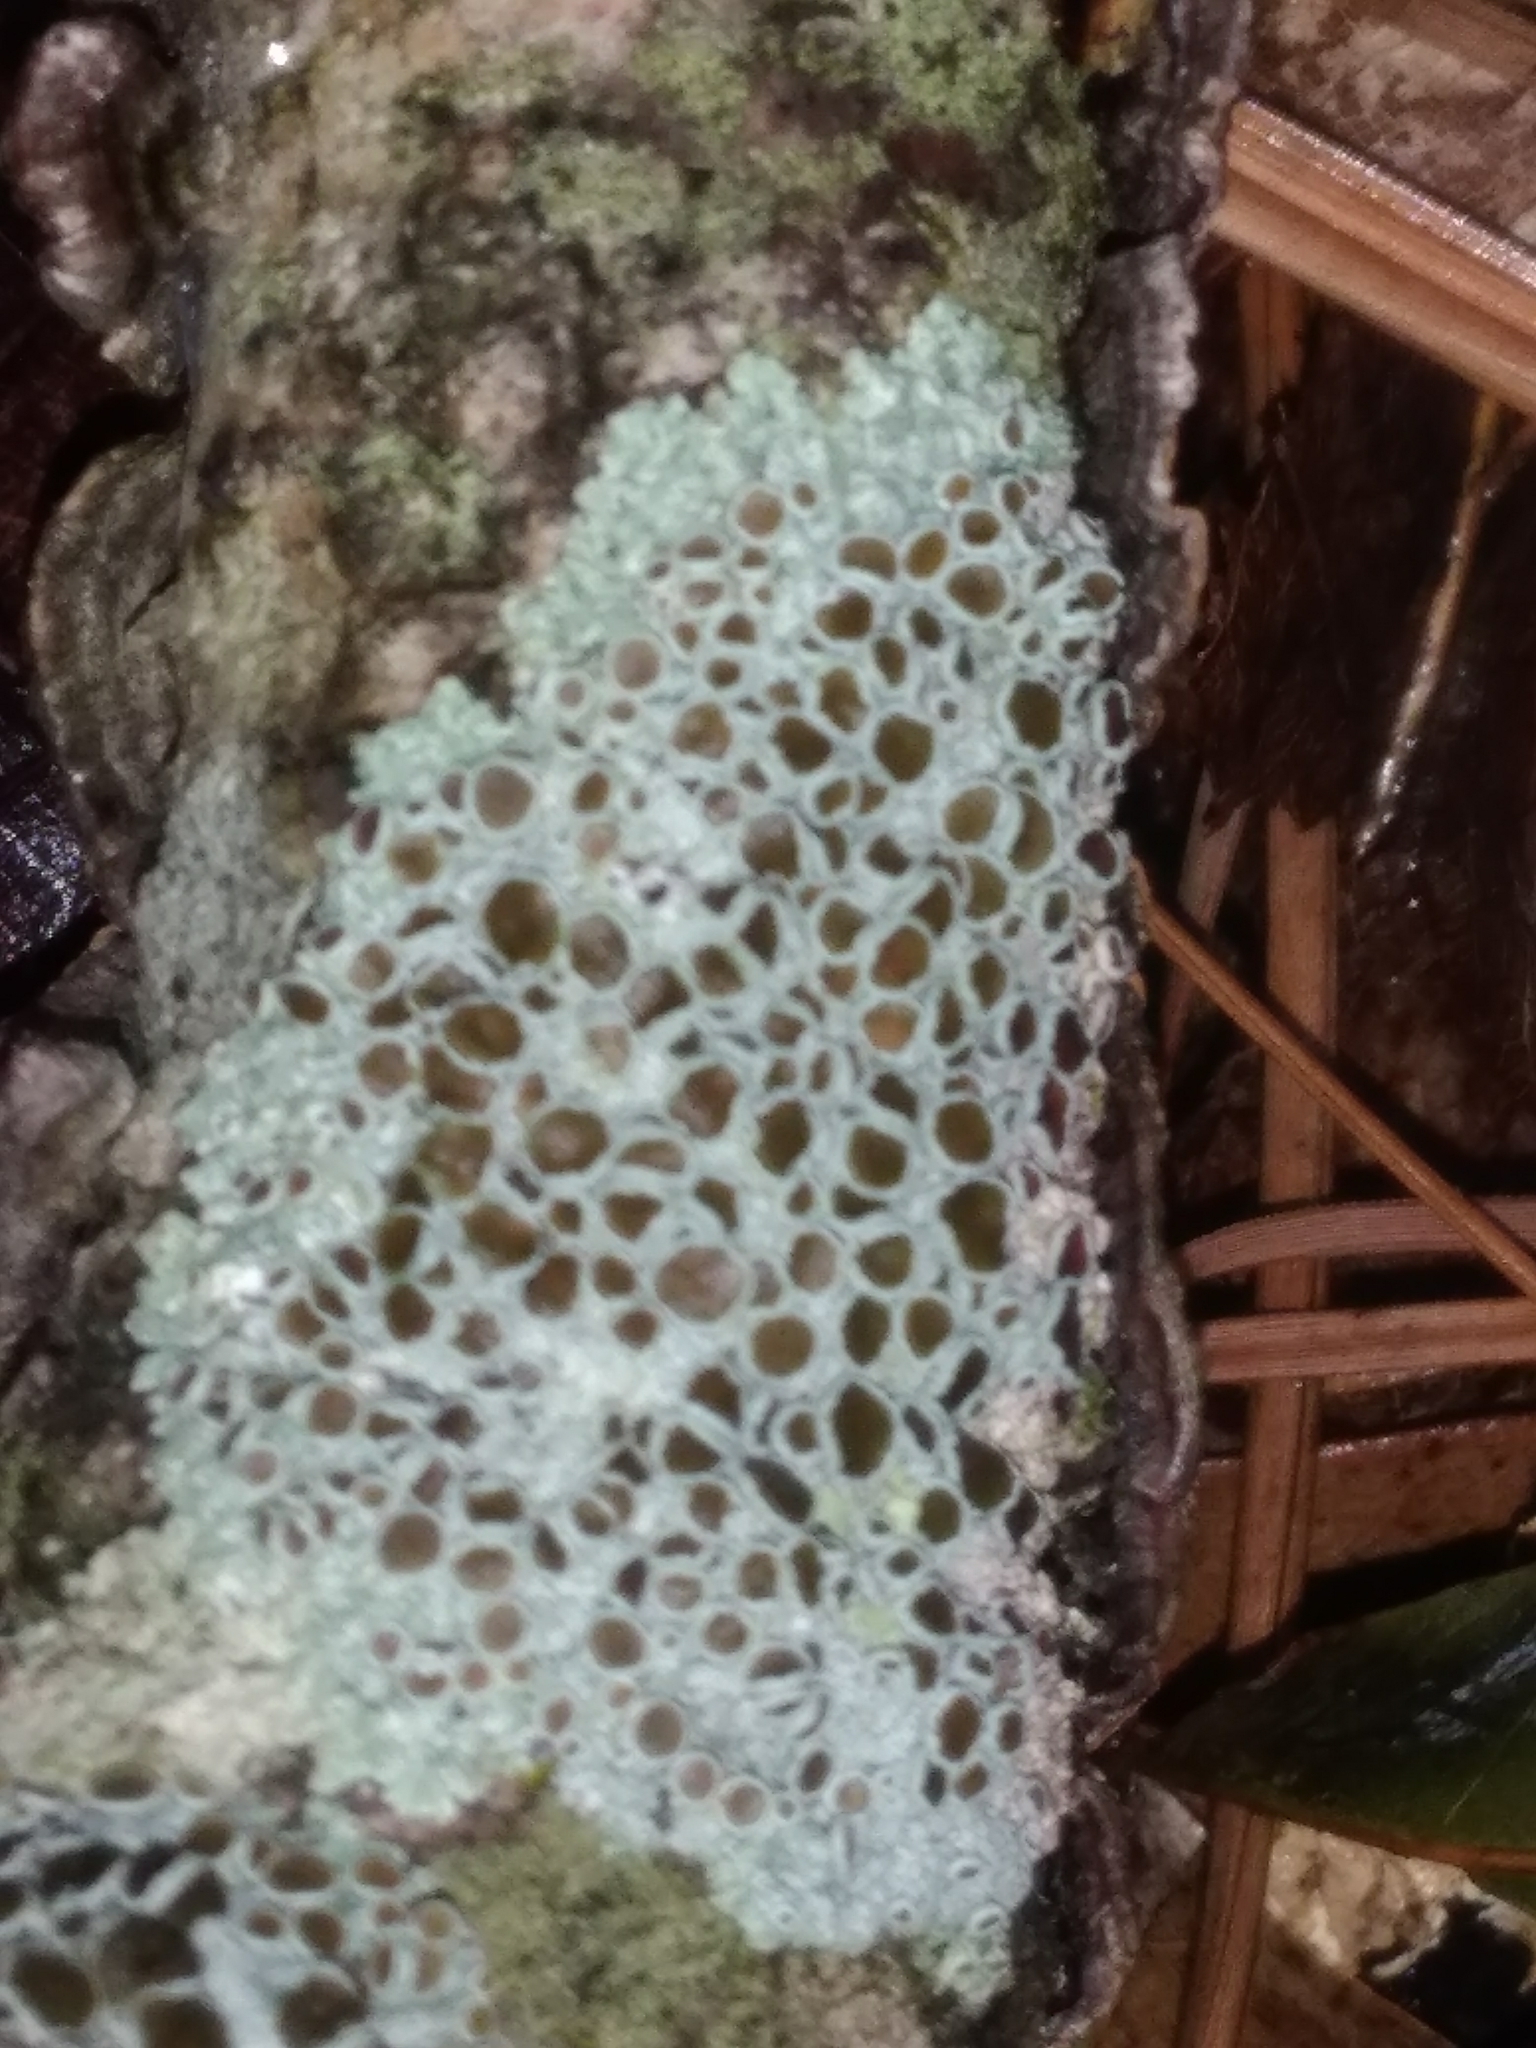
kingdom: Fungi
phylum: Ascomycota
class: Lecanoromycetes
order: Caliciales
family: Physciaceae
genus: Physcia
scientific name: Physcia aipolia
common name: Hoary rosette lichen
